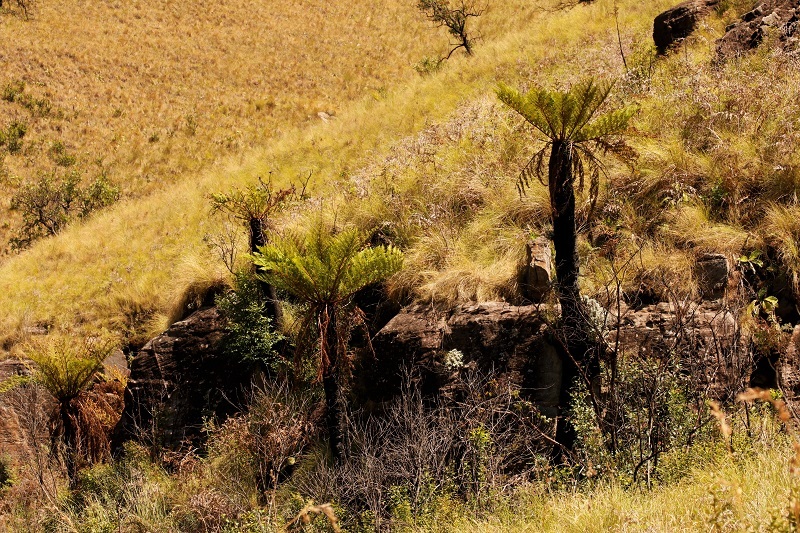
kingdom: Plantae
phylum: Tracheophyta
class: Polypodiopsida
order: Cyatheales
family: Cyatheaceae
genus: Alsophila
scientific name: Alsophila dregei
